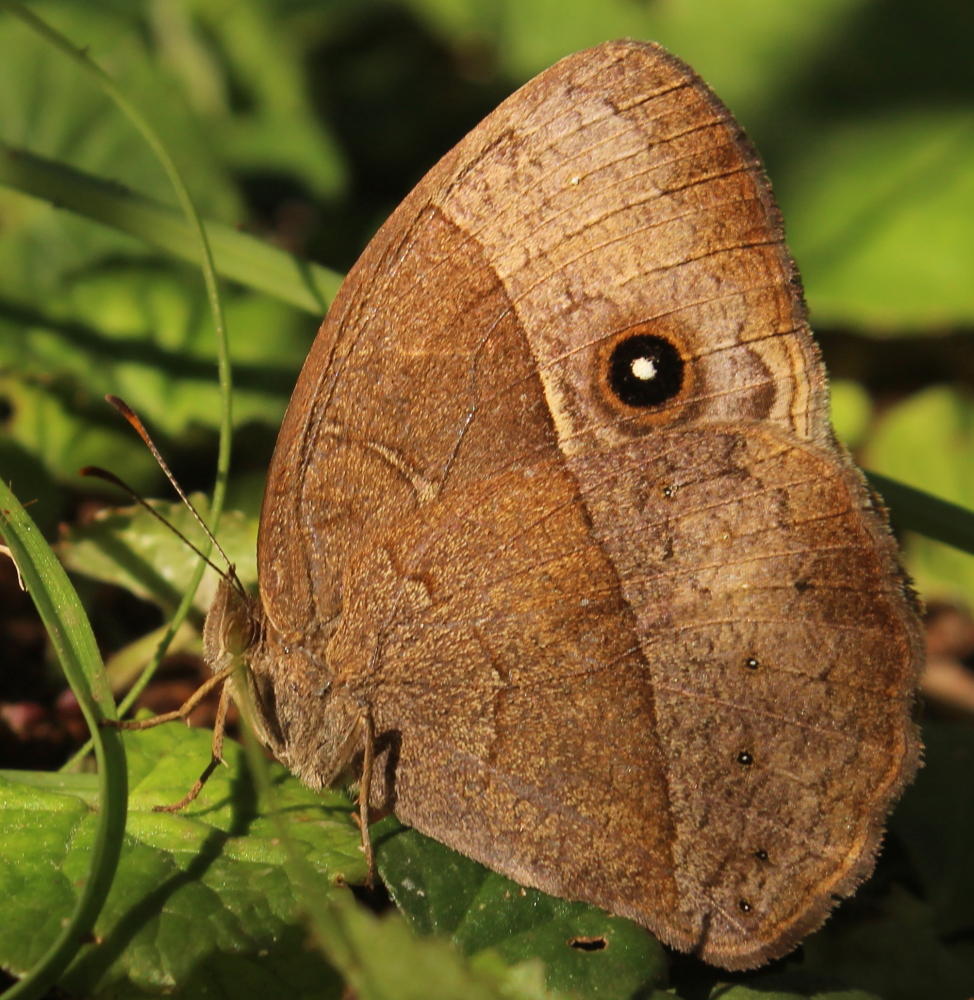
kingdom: Animalia
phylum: Arthropoda
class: Insecta
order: Lepidoptera
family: Nymphalidae
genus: Mycalesis
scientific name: Mycalesis rhacotis
